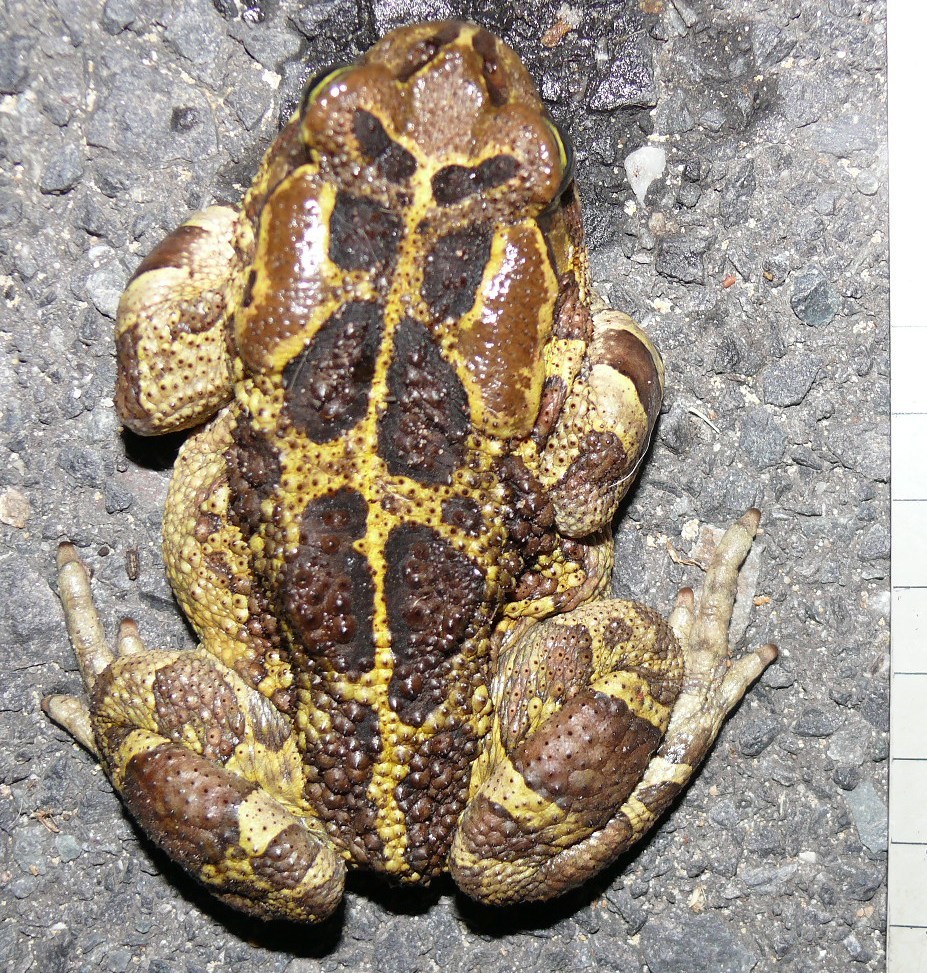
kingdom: Animalia
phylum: Chordata
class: Amphibia
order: Anura
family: Bufonidae
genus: Sclerophrys
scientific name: Sclerophrys pantherina
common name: Panther toad
